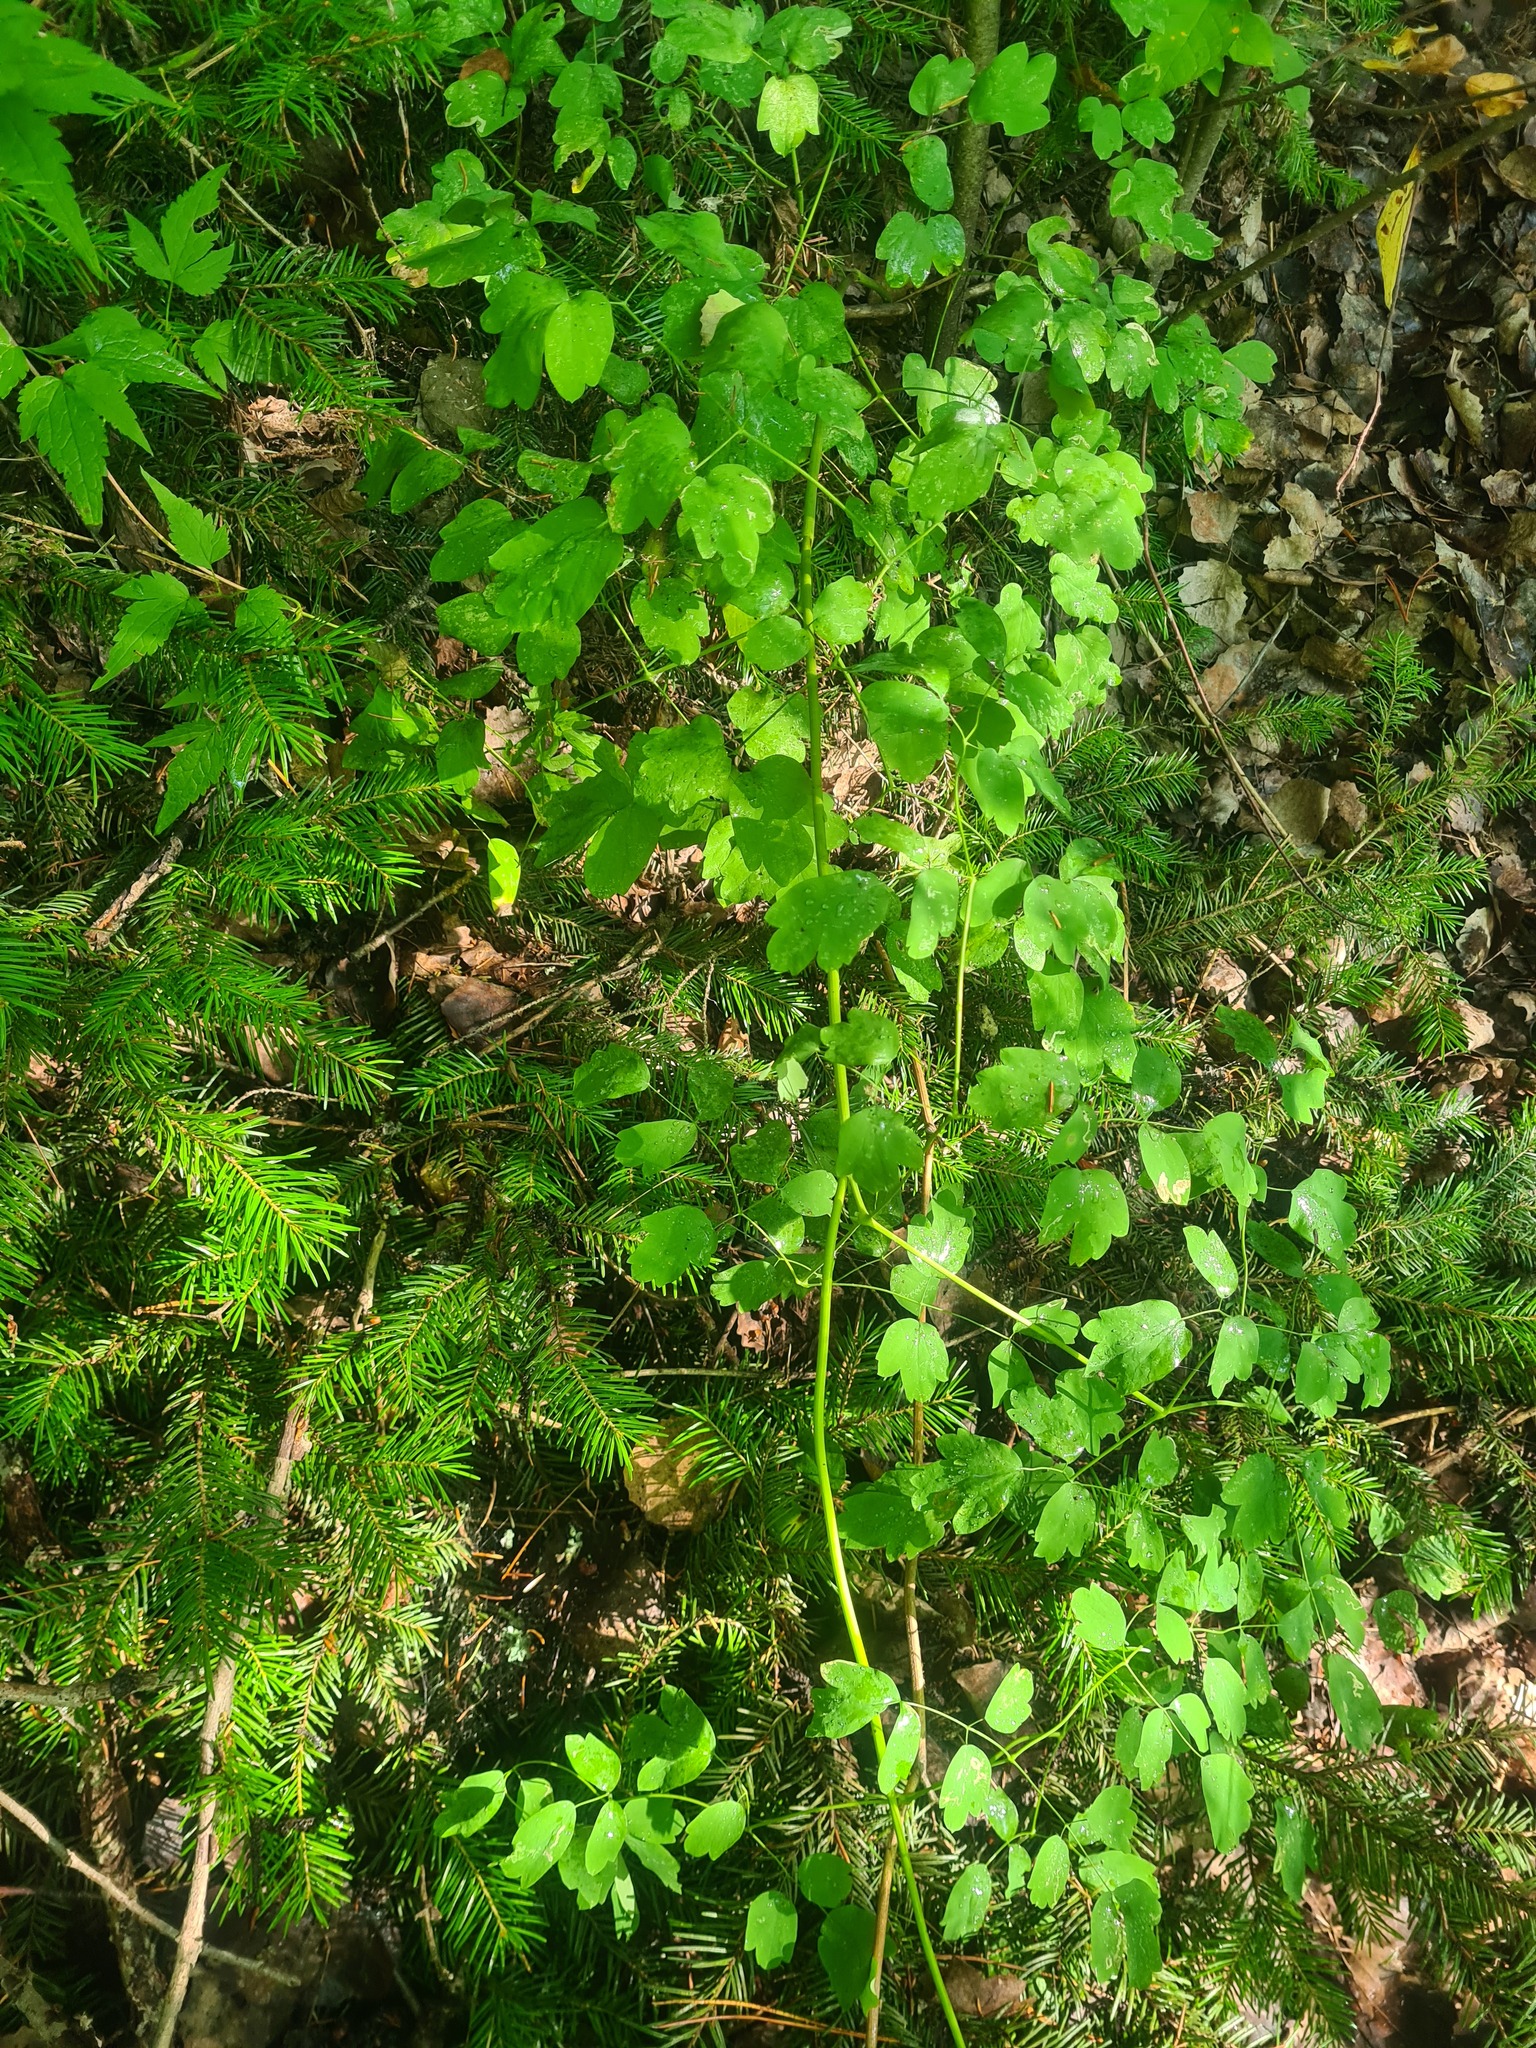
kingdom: Plantae
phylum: Tracheophyta
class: Magnoliopsida
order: Ranunculales
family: Ranunculaceae
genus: Thalictrum
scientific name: Thalictrum minus
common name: Lesser meadow-rue
